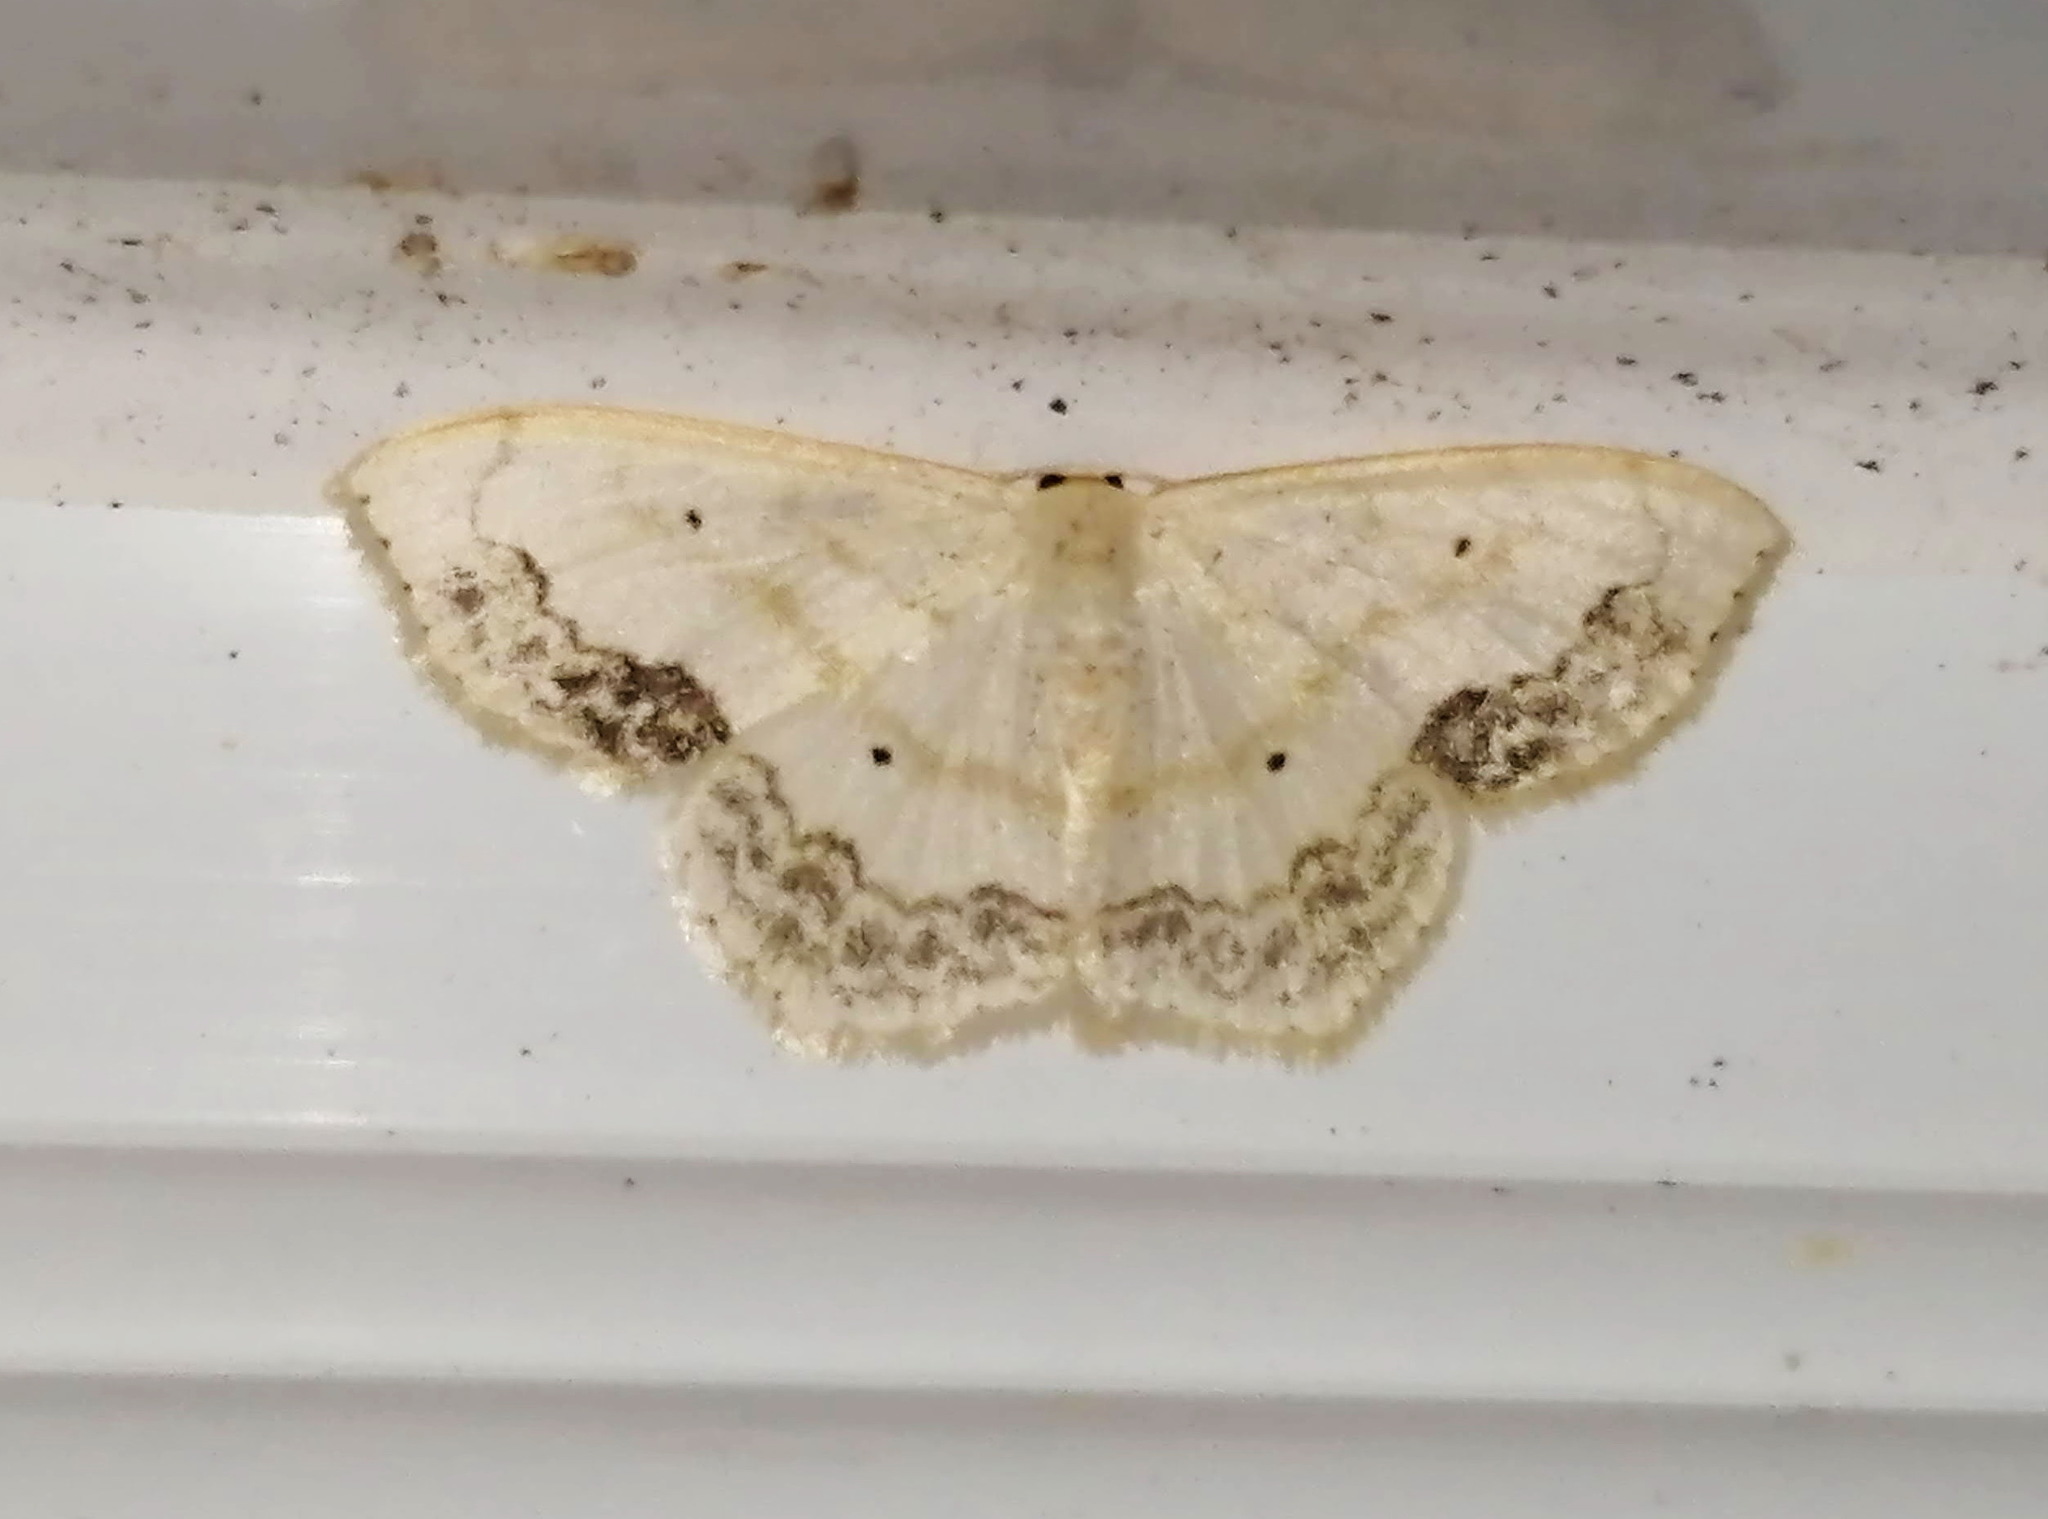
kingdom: Animalia
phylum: Arthropoda
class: Insecta
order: Lepidoptera
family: Geometridae
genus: Scopula
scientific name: Scopula limboundata
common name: Large lace border
